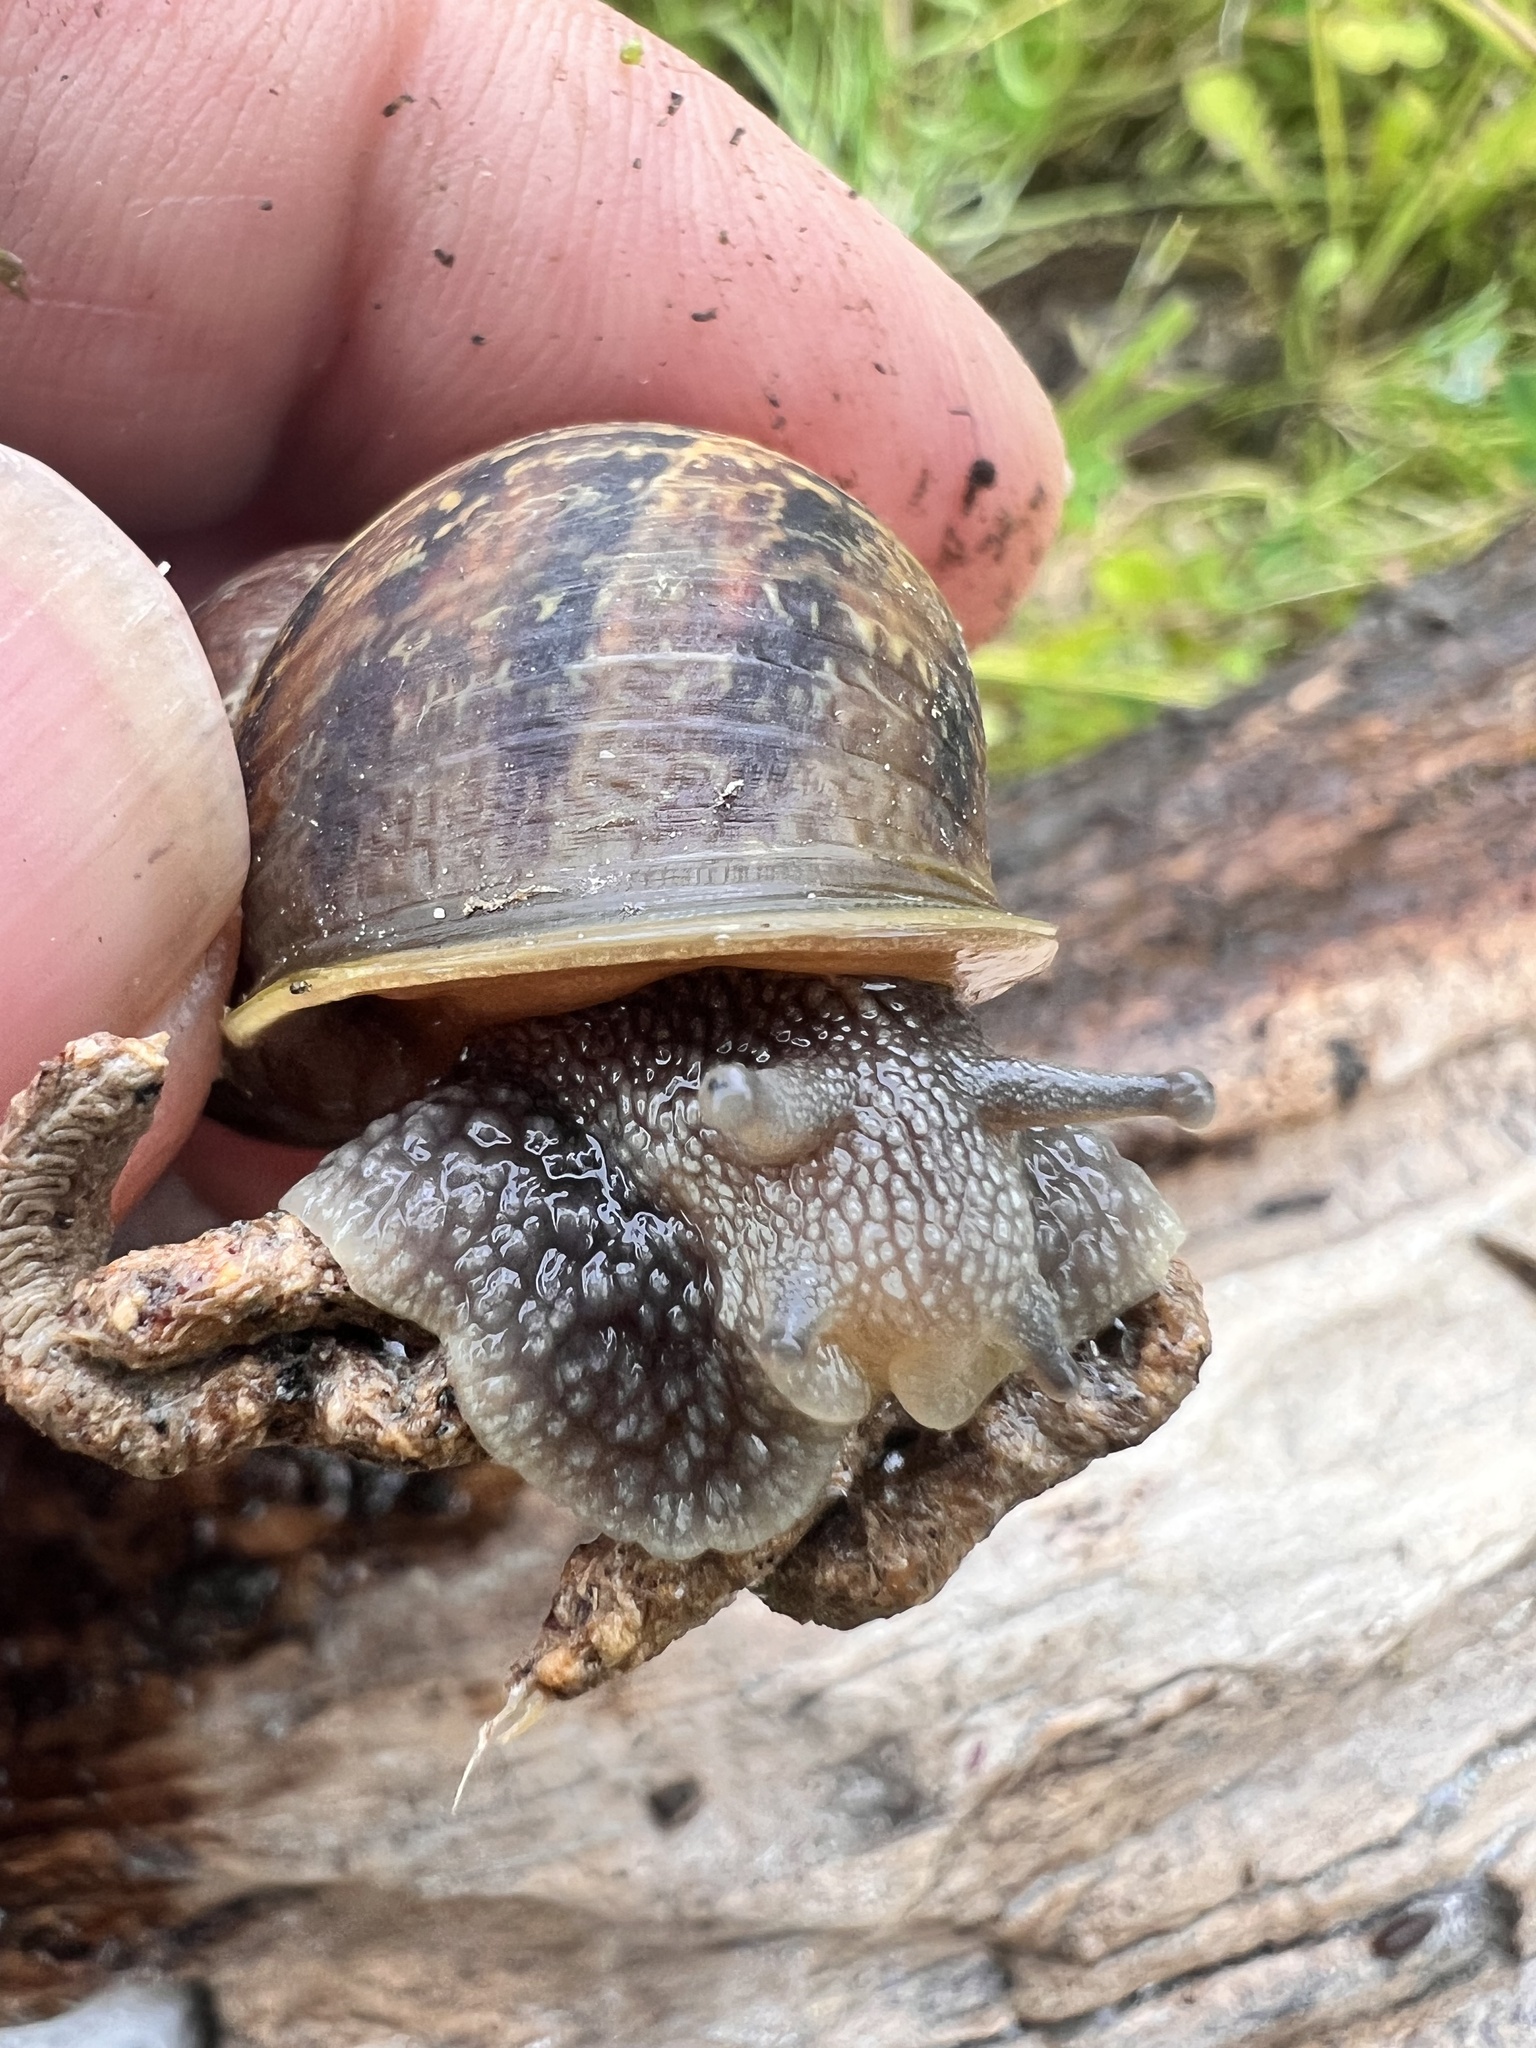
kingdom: Animalia
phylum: Mollusca
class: Gastropoda
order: Stylommatophora
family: Helicidae
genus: Cornu
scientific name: Cornu aspersum
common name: Brown garden snail
